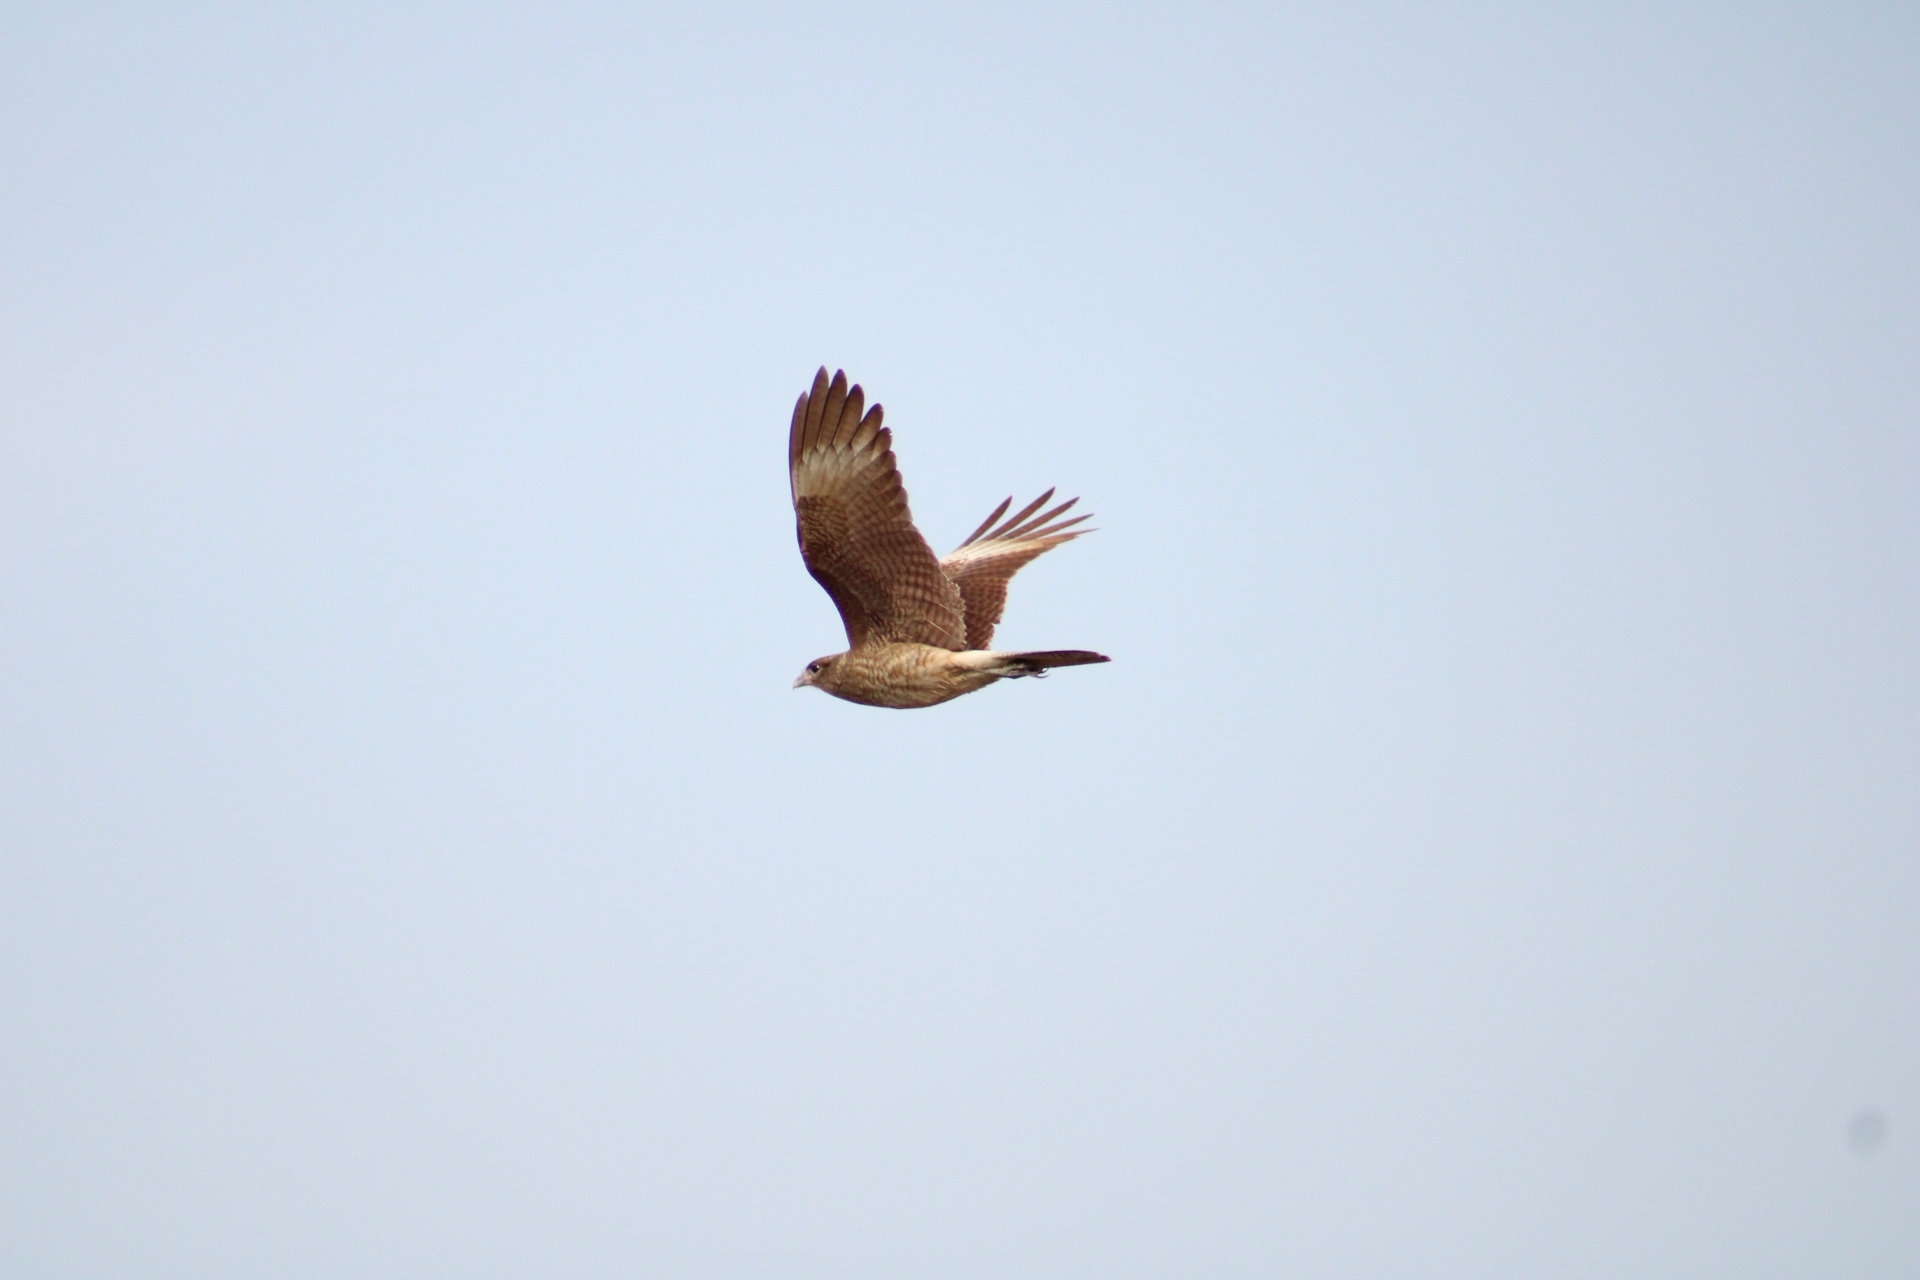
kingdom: Animalia
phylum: Chordata
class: Aves
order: Falconiformes
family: Falconidae
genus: Daptrius
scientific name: Daptrius
